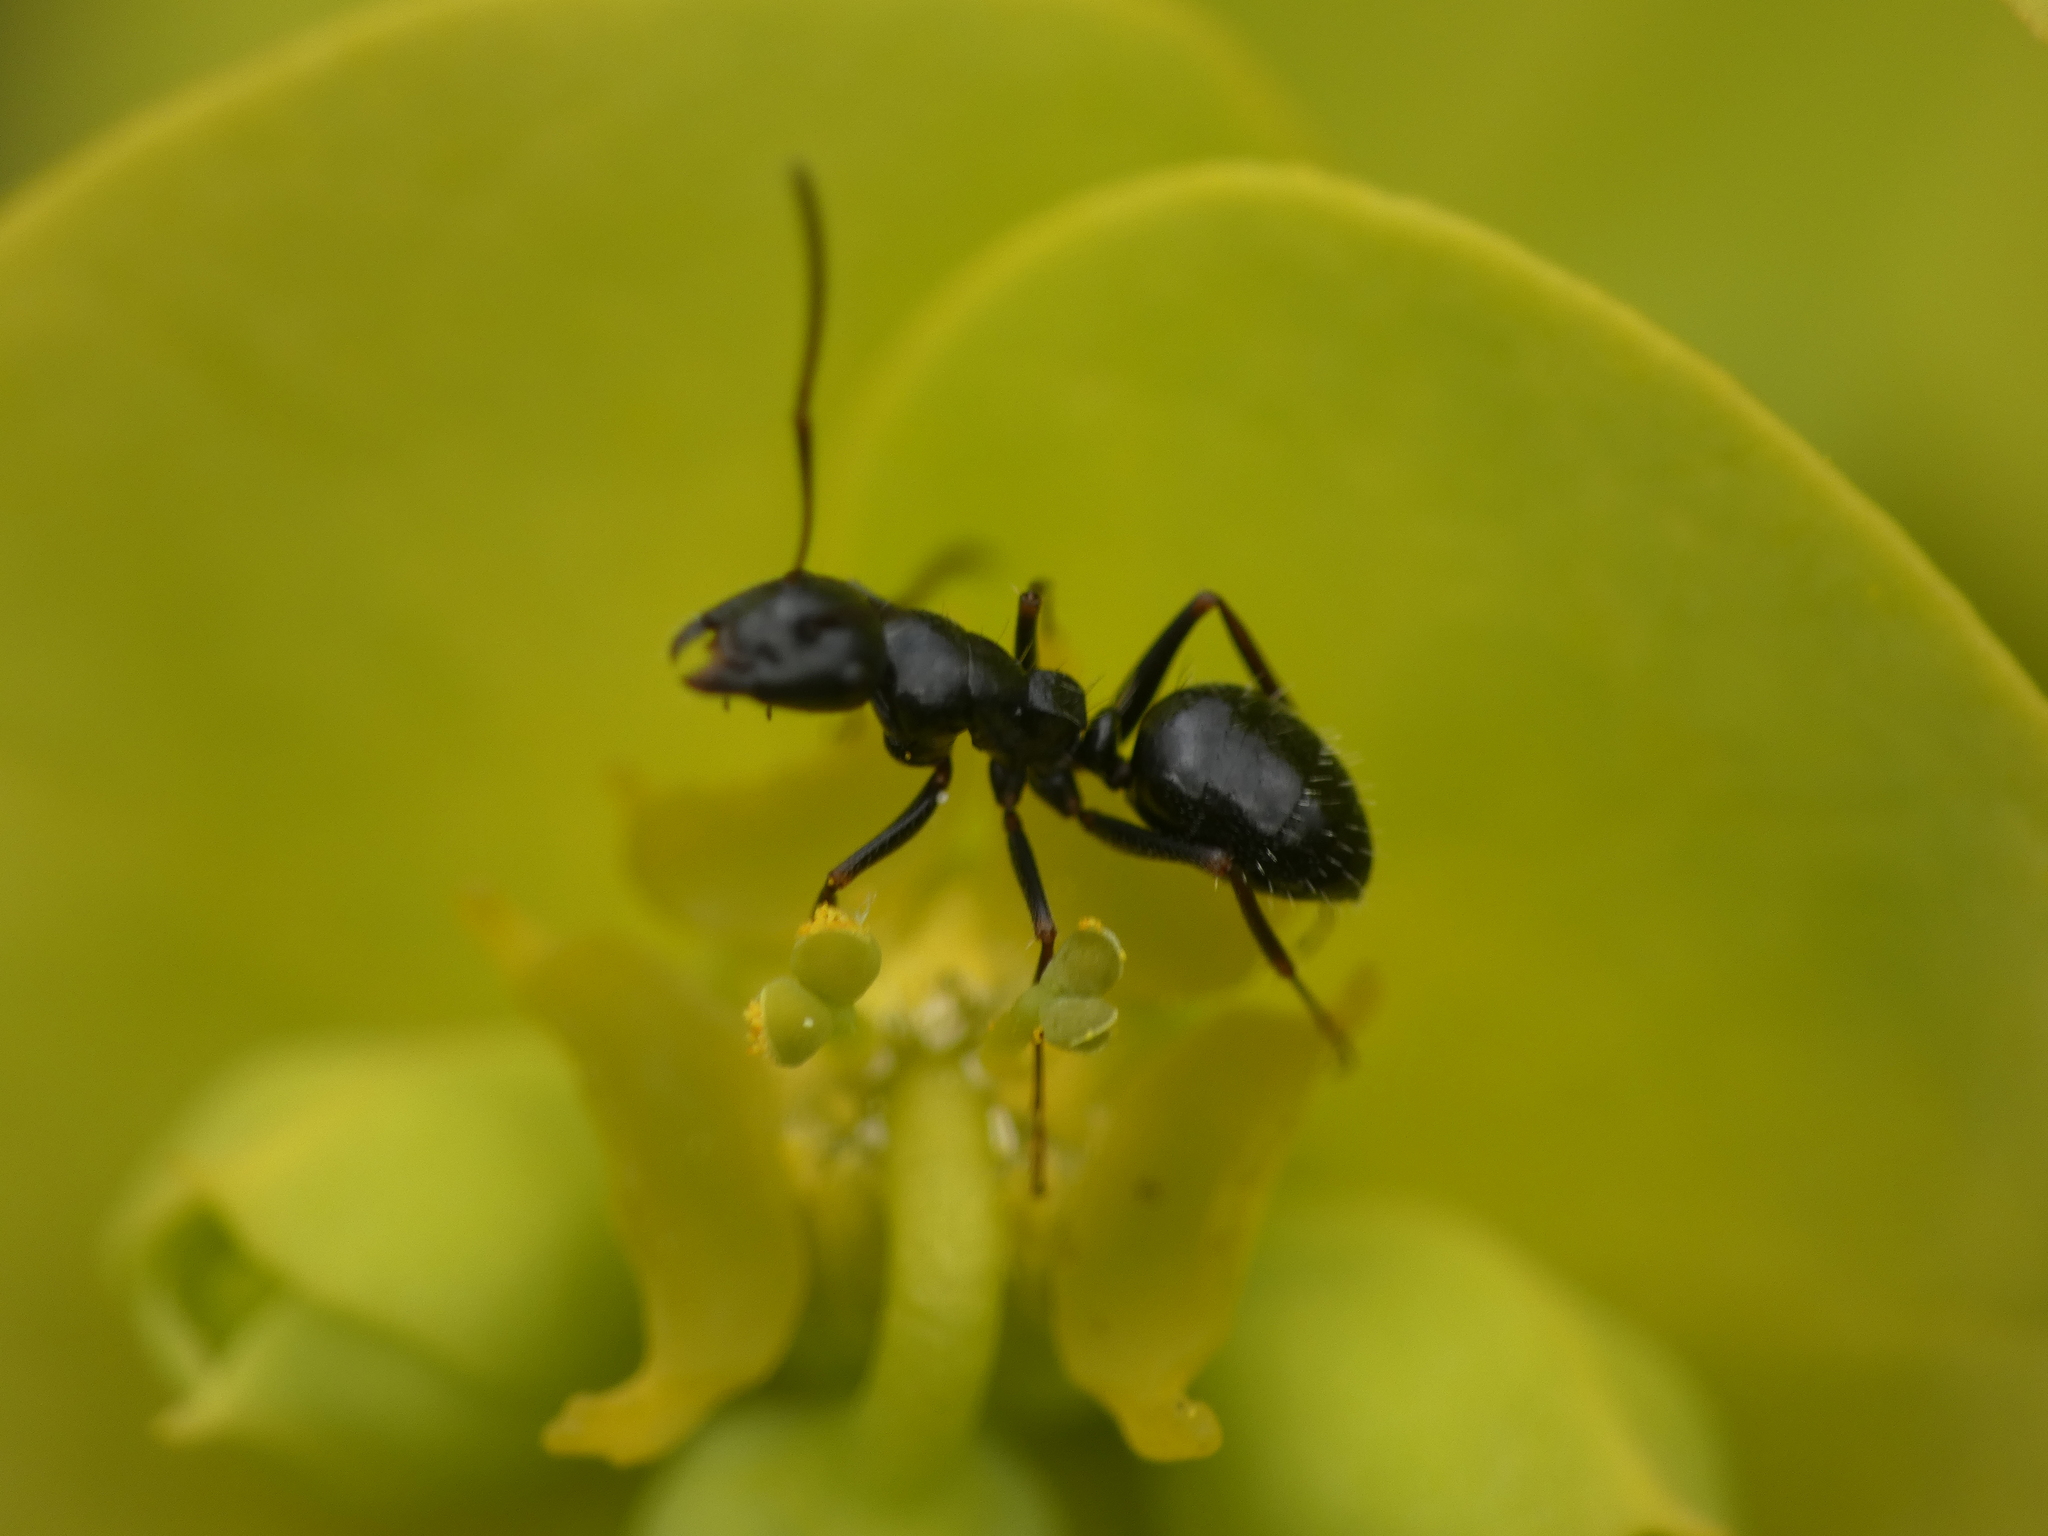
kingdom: Animalia
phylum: Arthropoda
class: Insecta
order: Hymenoptera
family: Formicidae
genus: Camponotus
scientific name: Camponotus piceus
